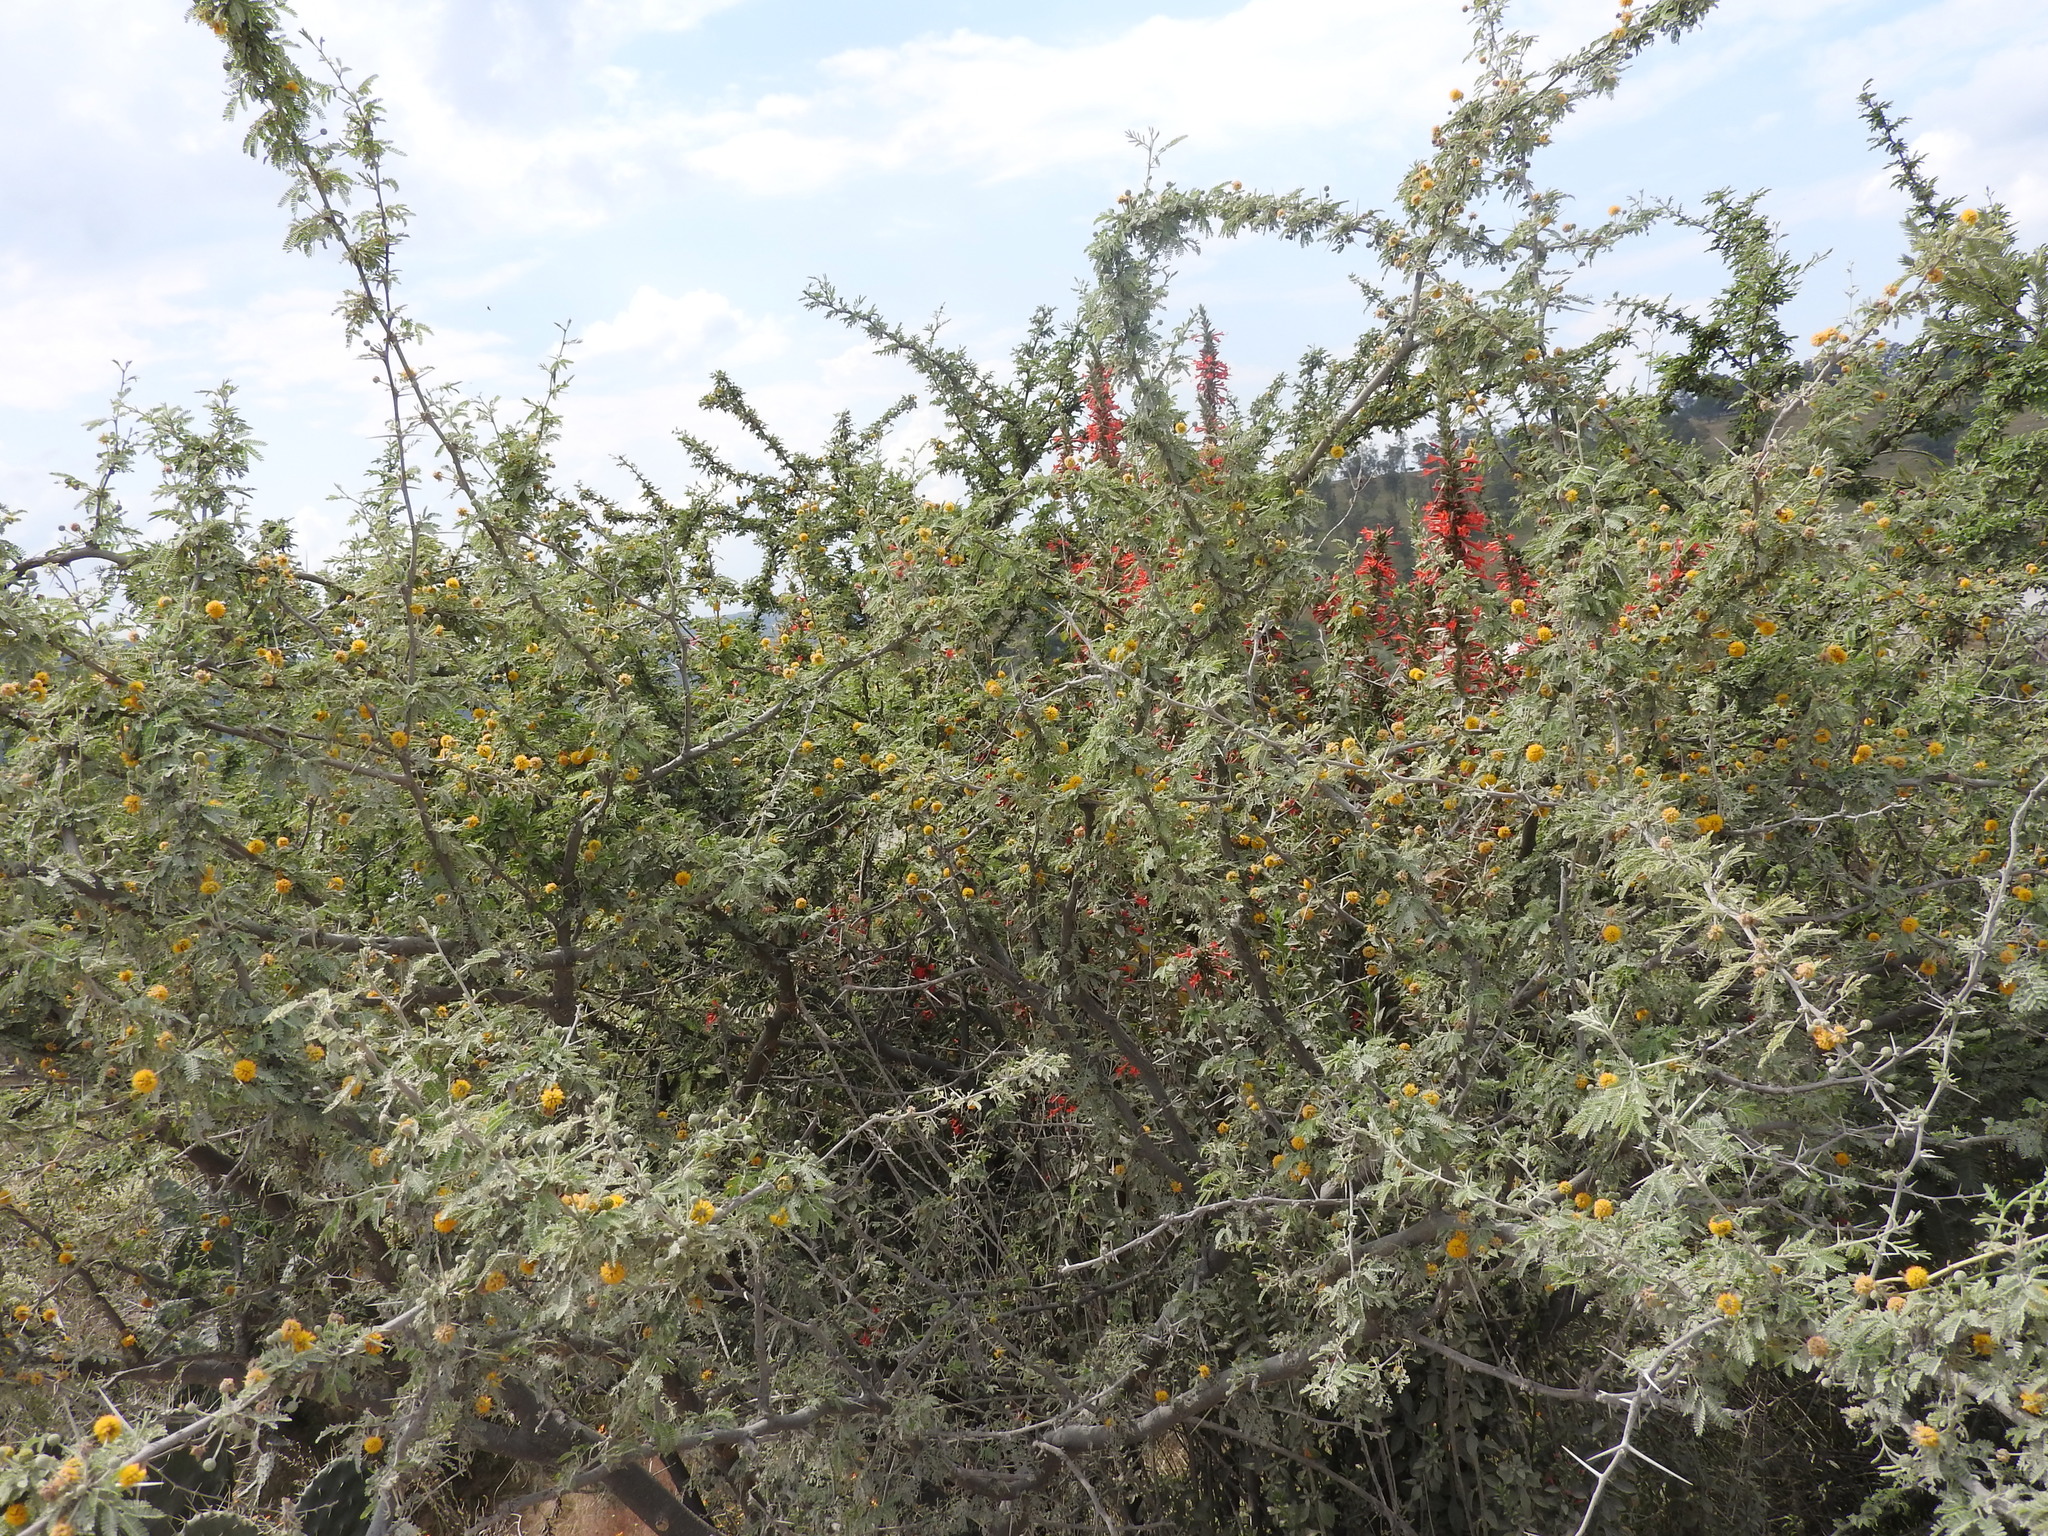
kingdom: Plantae
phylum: Tracheophyta
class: Magnoliopsida
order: Fabales
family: Fabaceae
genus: Vachellia
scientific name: Vachellia farnesiana
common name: Sweet acacia
